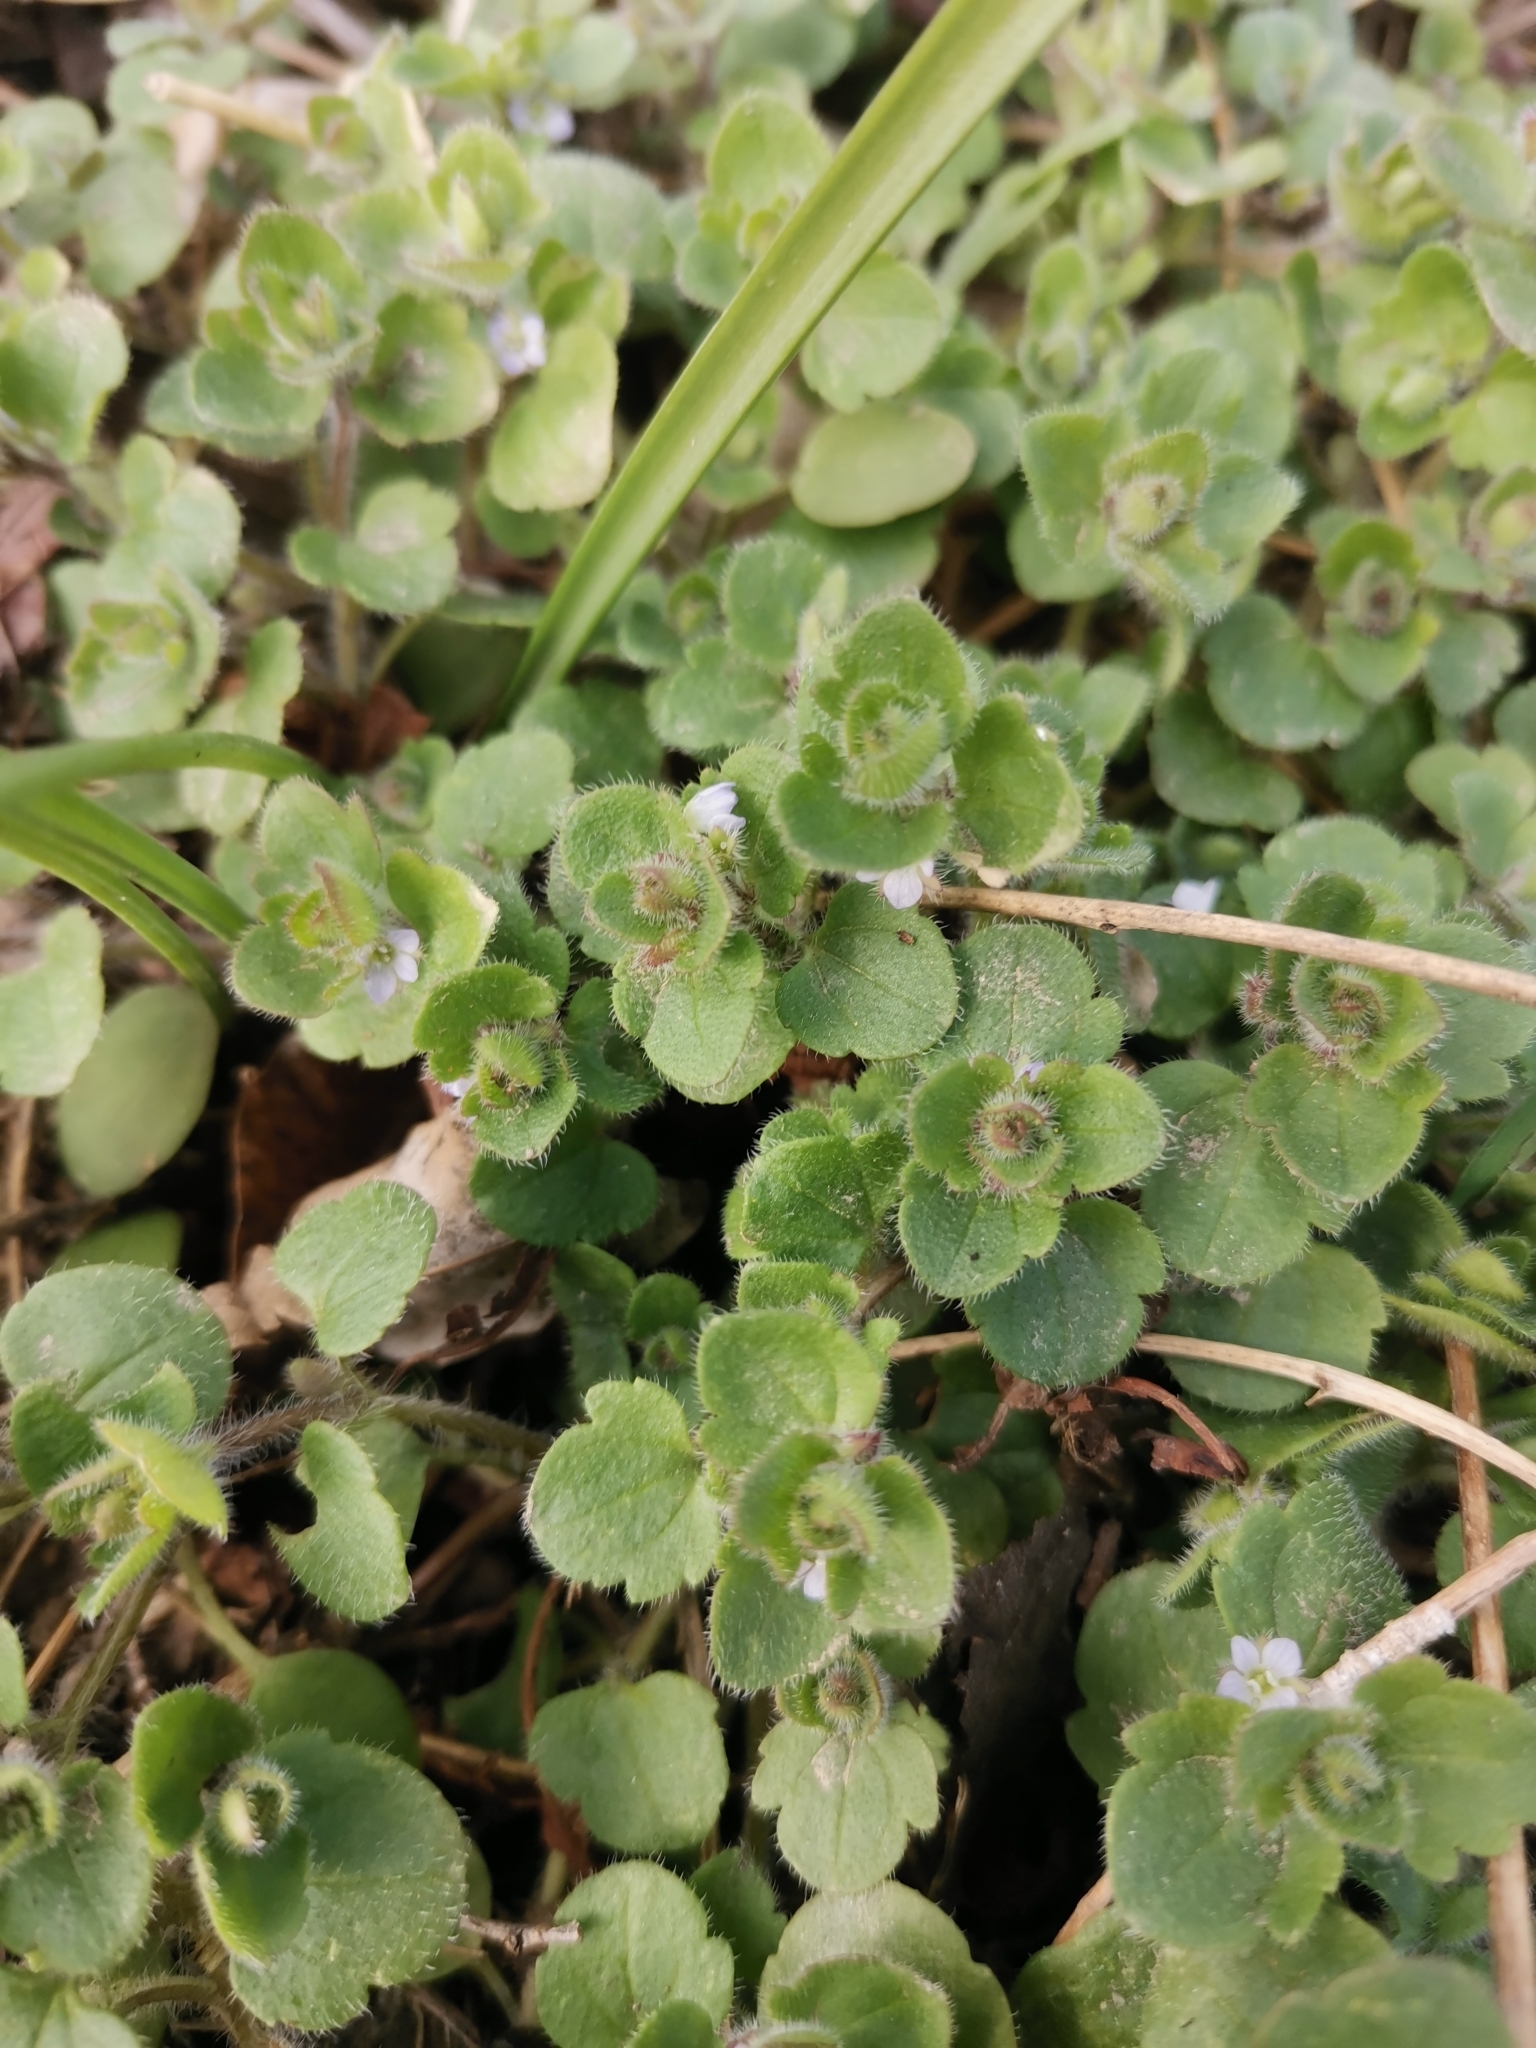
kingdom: Plantae
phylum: Tracheophyta
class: Magnoliopsida
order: Lamiales
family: Plantaginaceae
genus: Veronica
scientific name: Veronica sublobata
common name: False ivy-leaved speedwell
